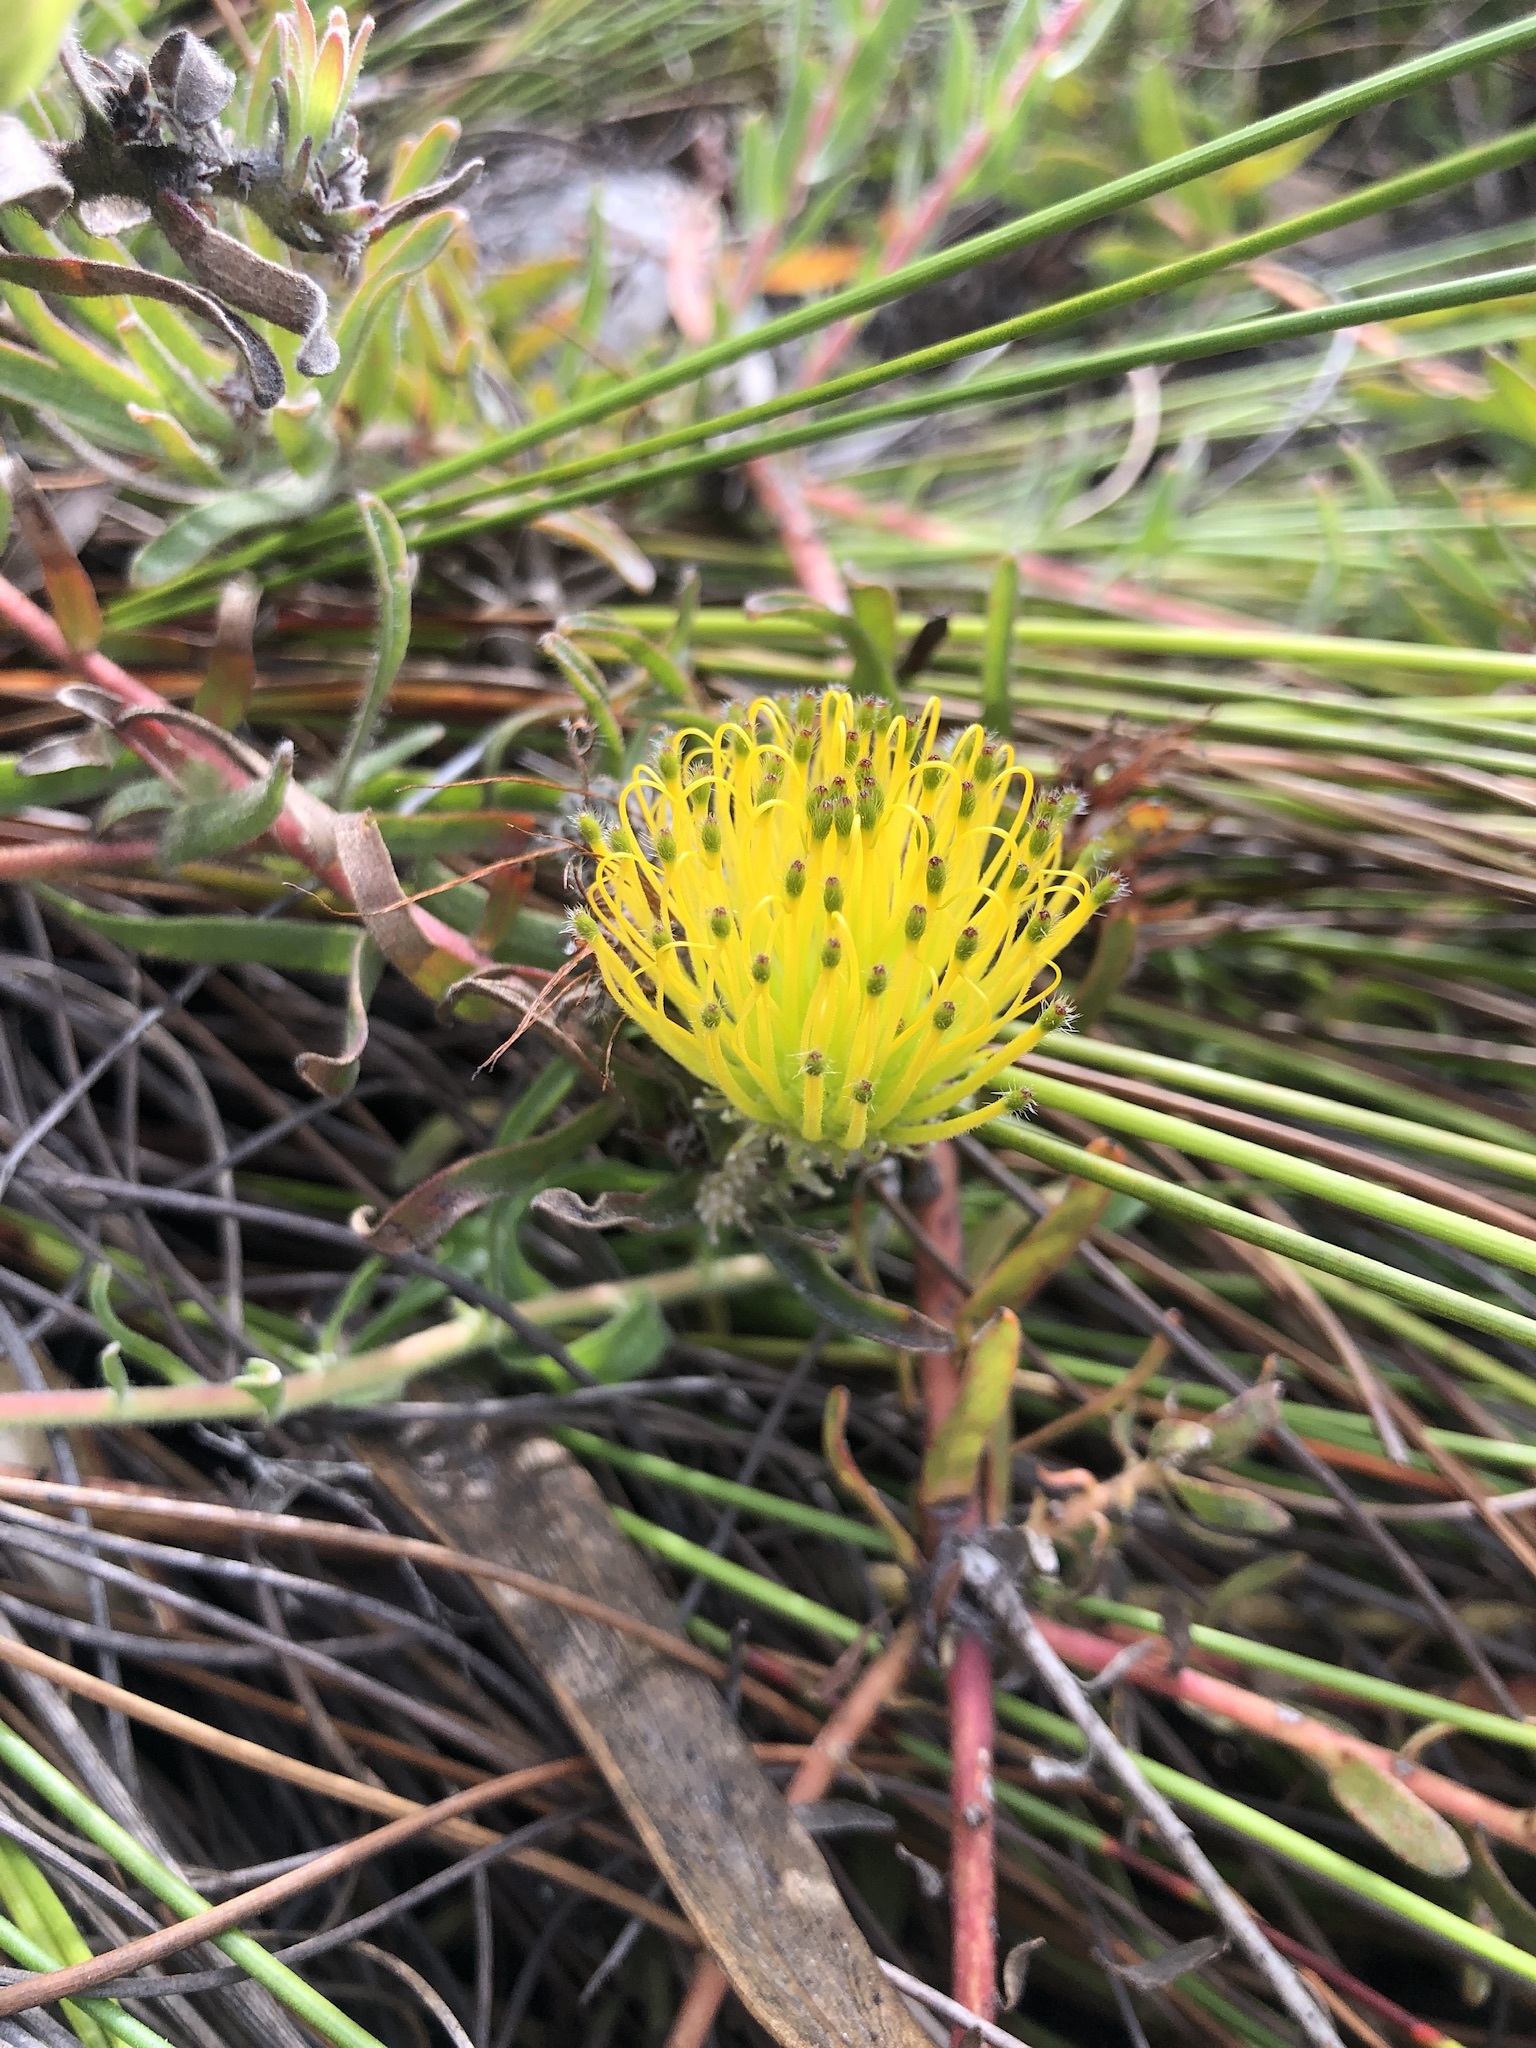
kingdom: Plantae
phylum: Tracheophyta
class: Magnoliopsida
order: Proteales
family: Proteaceae
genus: Leucospermum
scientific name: Leucospermum gracile
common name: Hermanus pincushion
